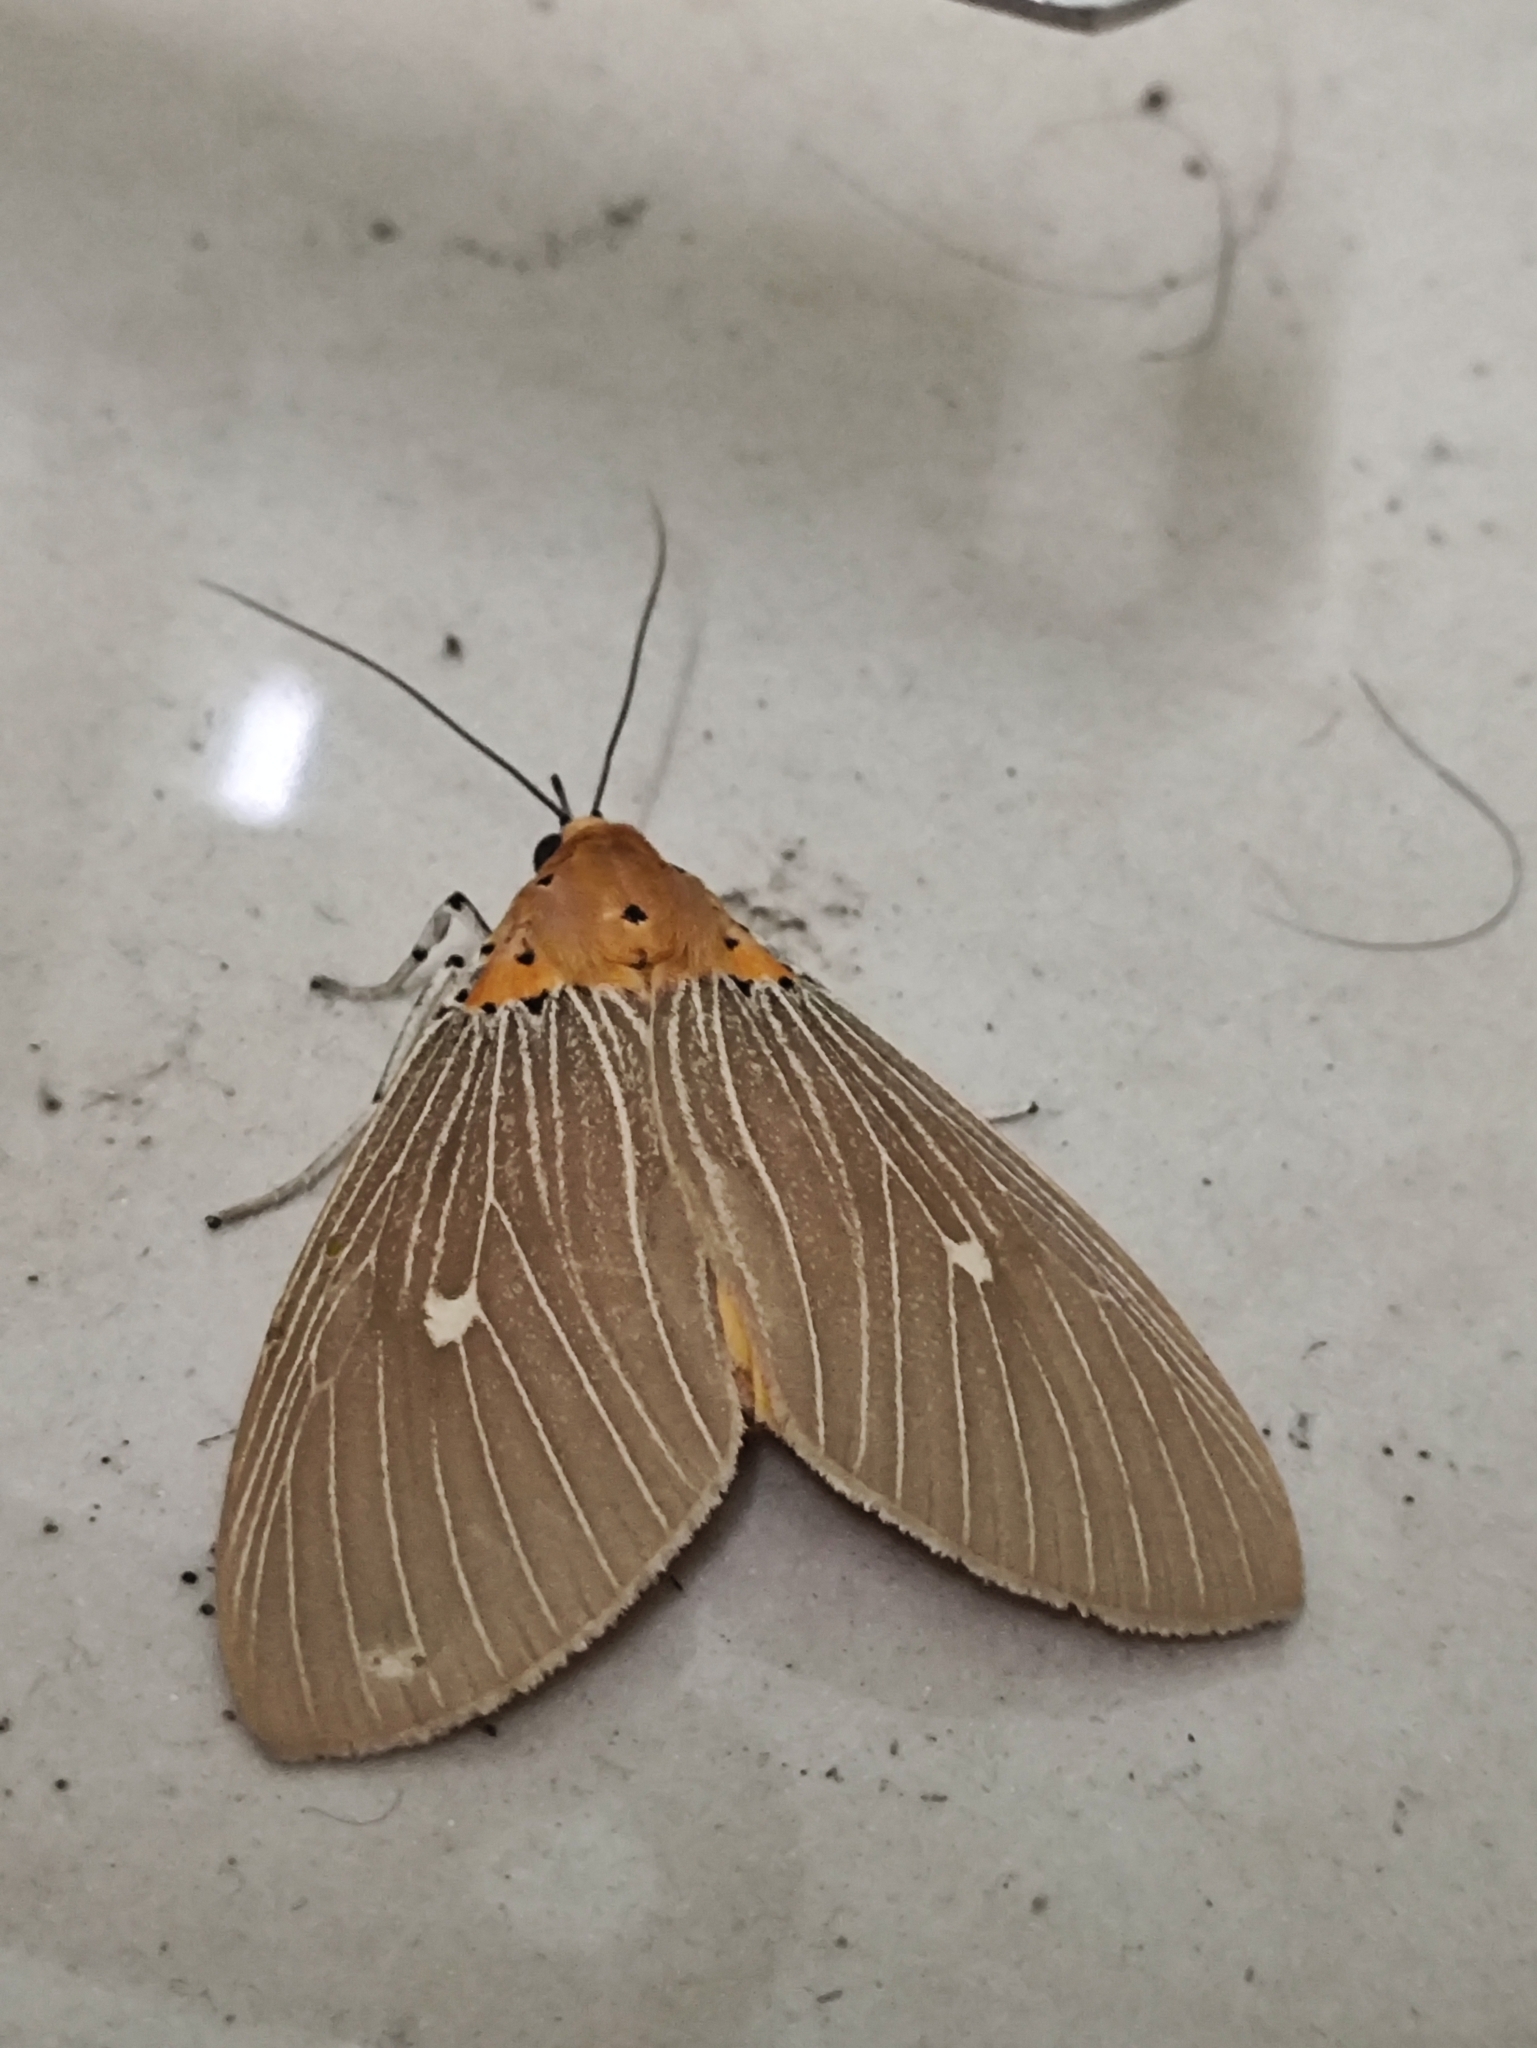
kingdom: Animalia
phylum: Arthropoda
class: Insecta
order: Lepidoptera
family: Erebidae
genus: Asota
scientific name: Asota caricae
